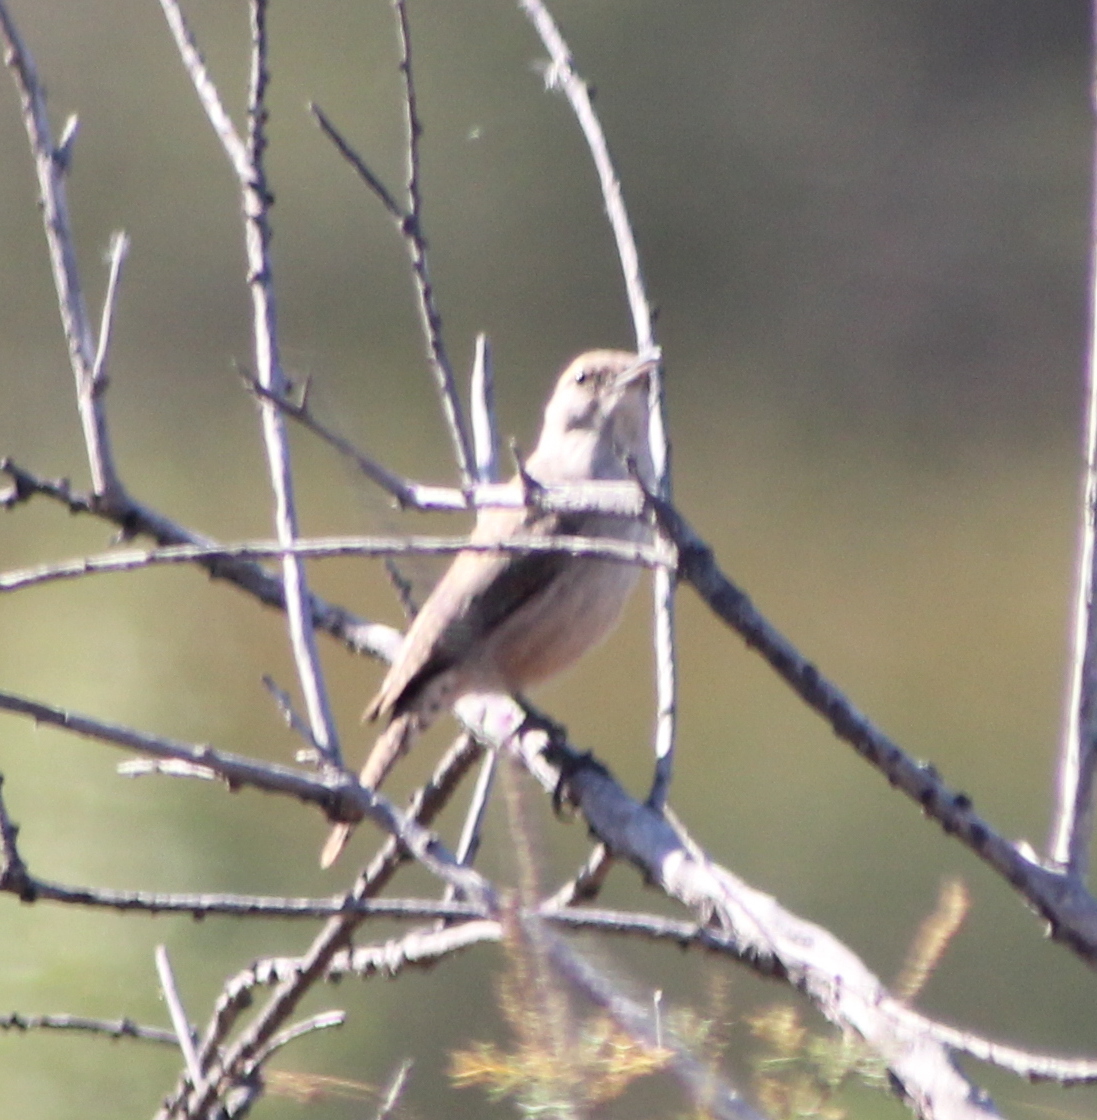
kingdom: Animalia
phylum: Chordata
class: Aves
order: Passeriformes
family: Troglodytidae
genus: Salpinctes
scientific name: Salpinctes obsoletus
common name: Rock wren
